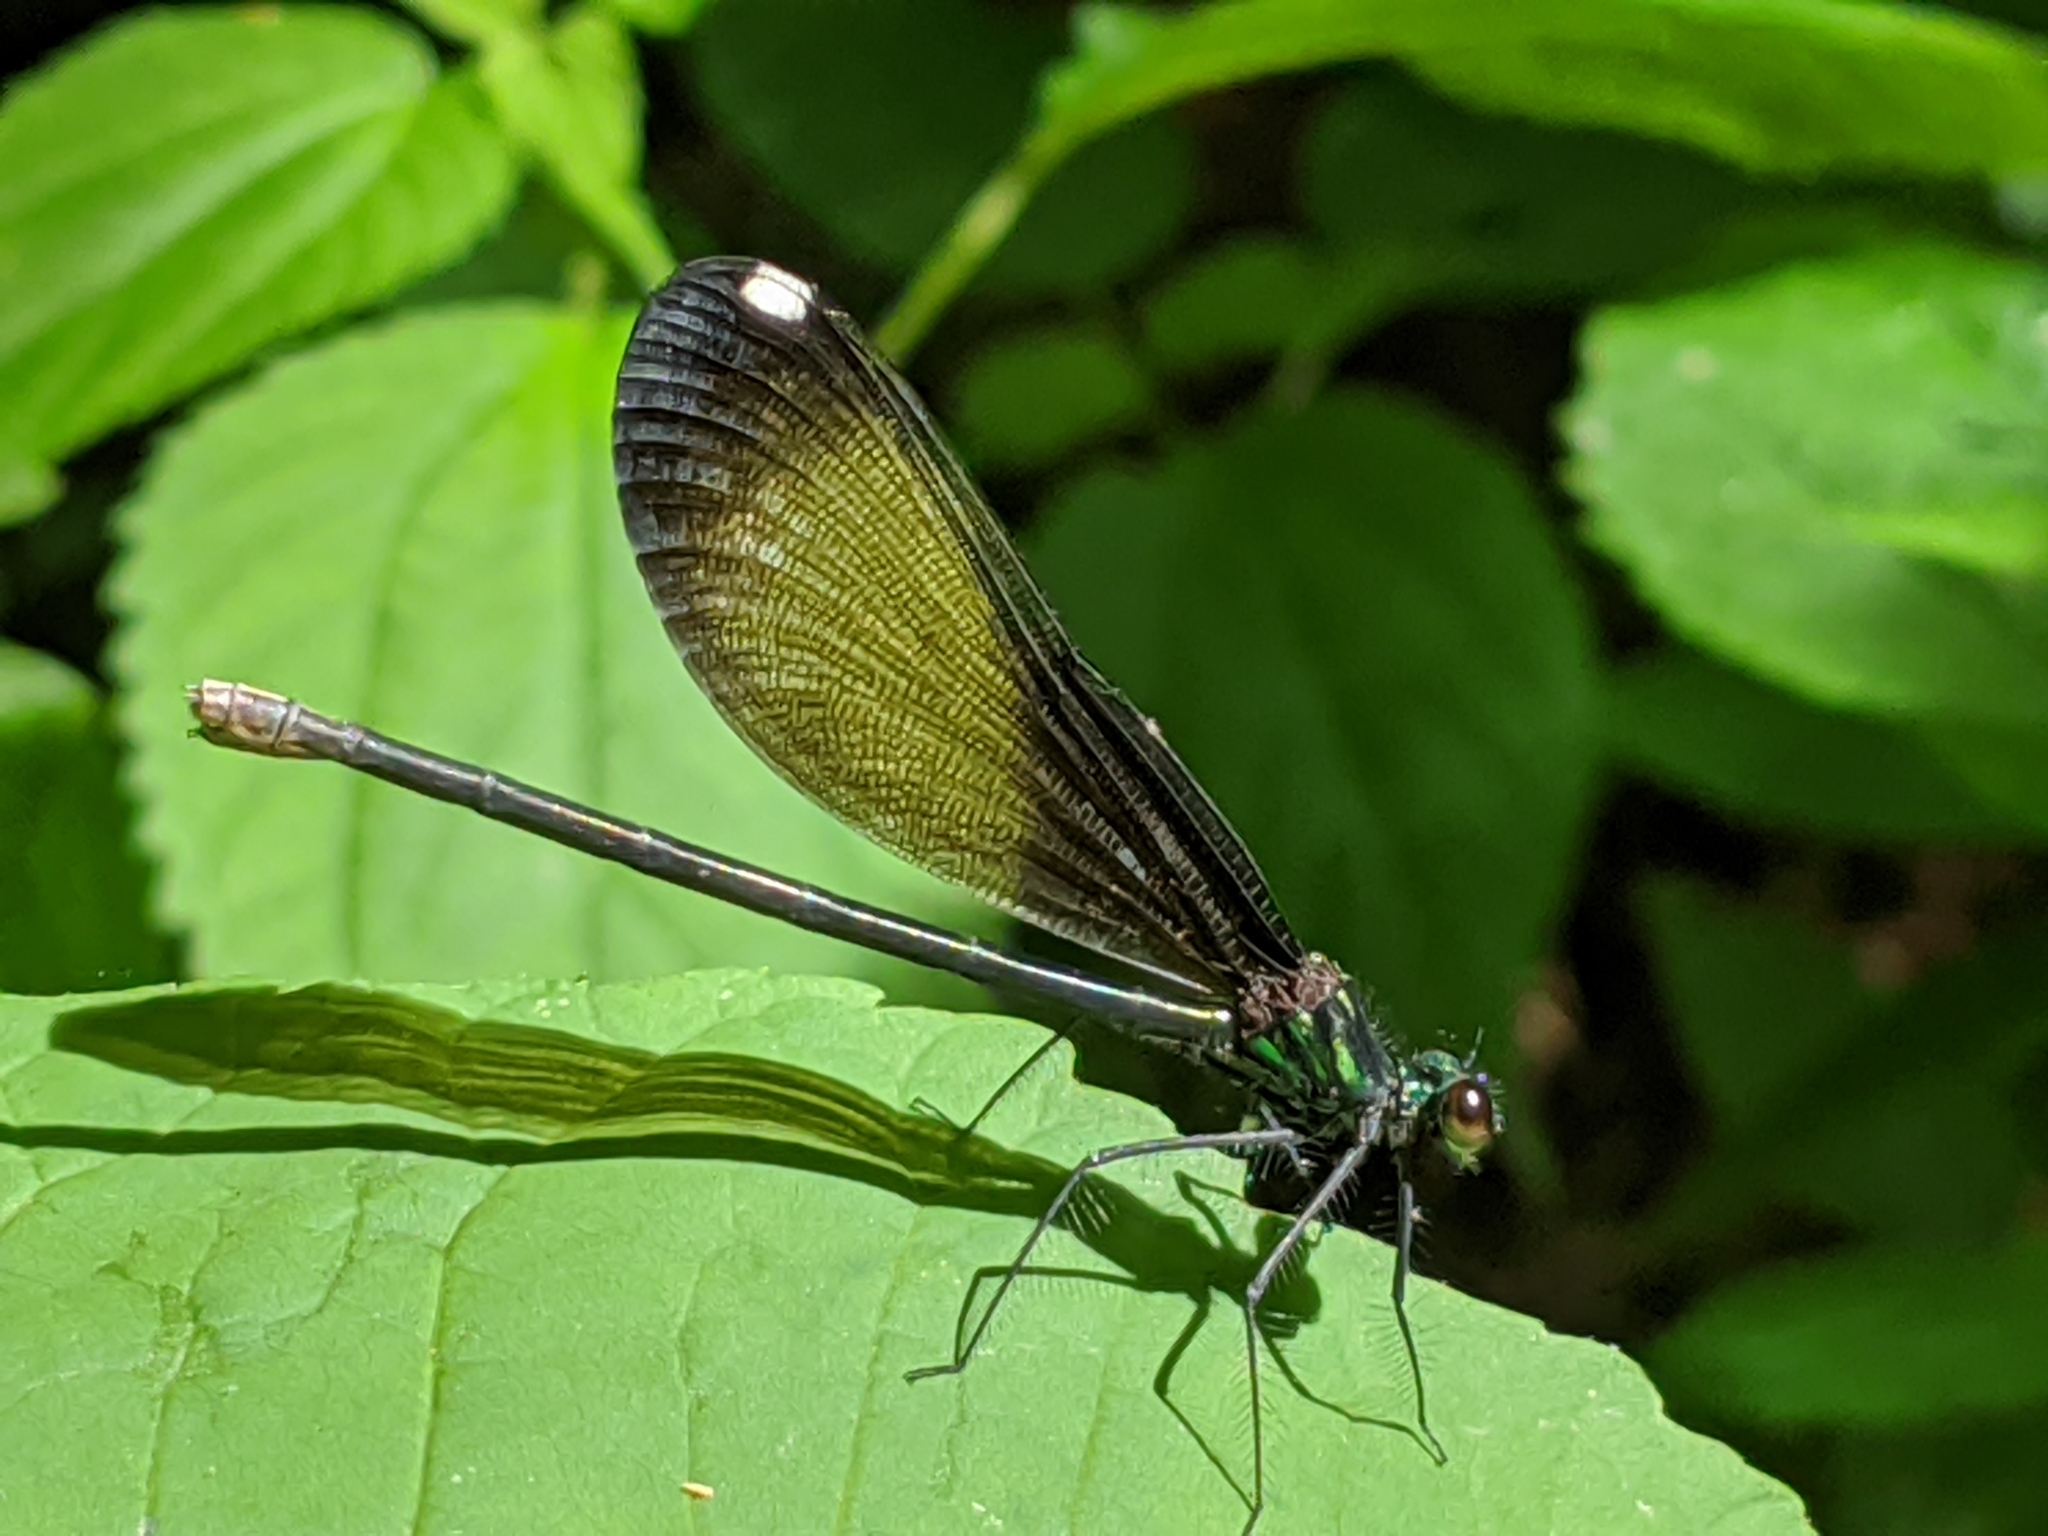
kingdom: Animalia
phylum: Arthropoda
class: Insecta
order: Odonata
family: Calopterygidae
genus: Calopteryx
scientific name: Calopteryx maculata
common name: Ebony jewelwing
